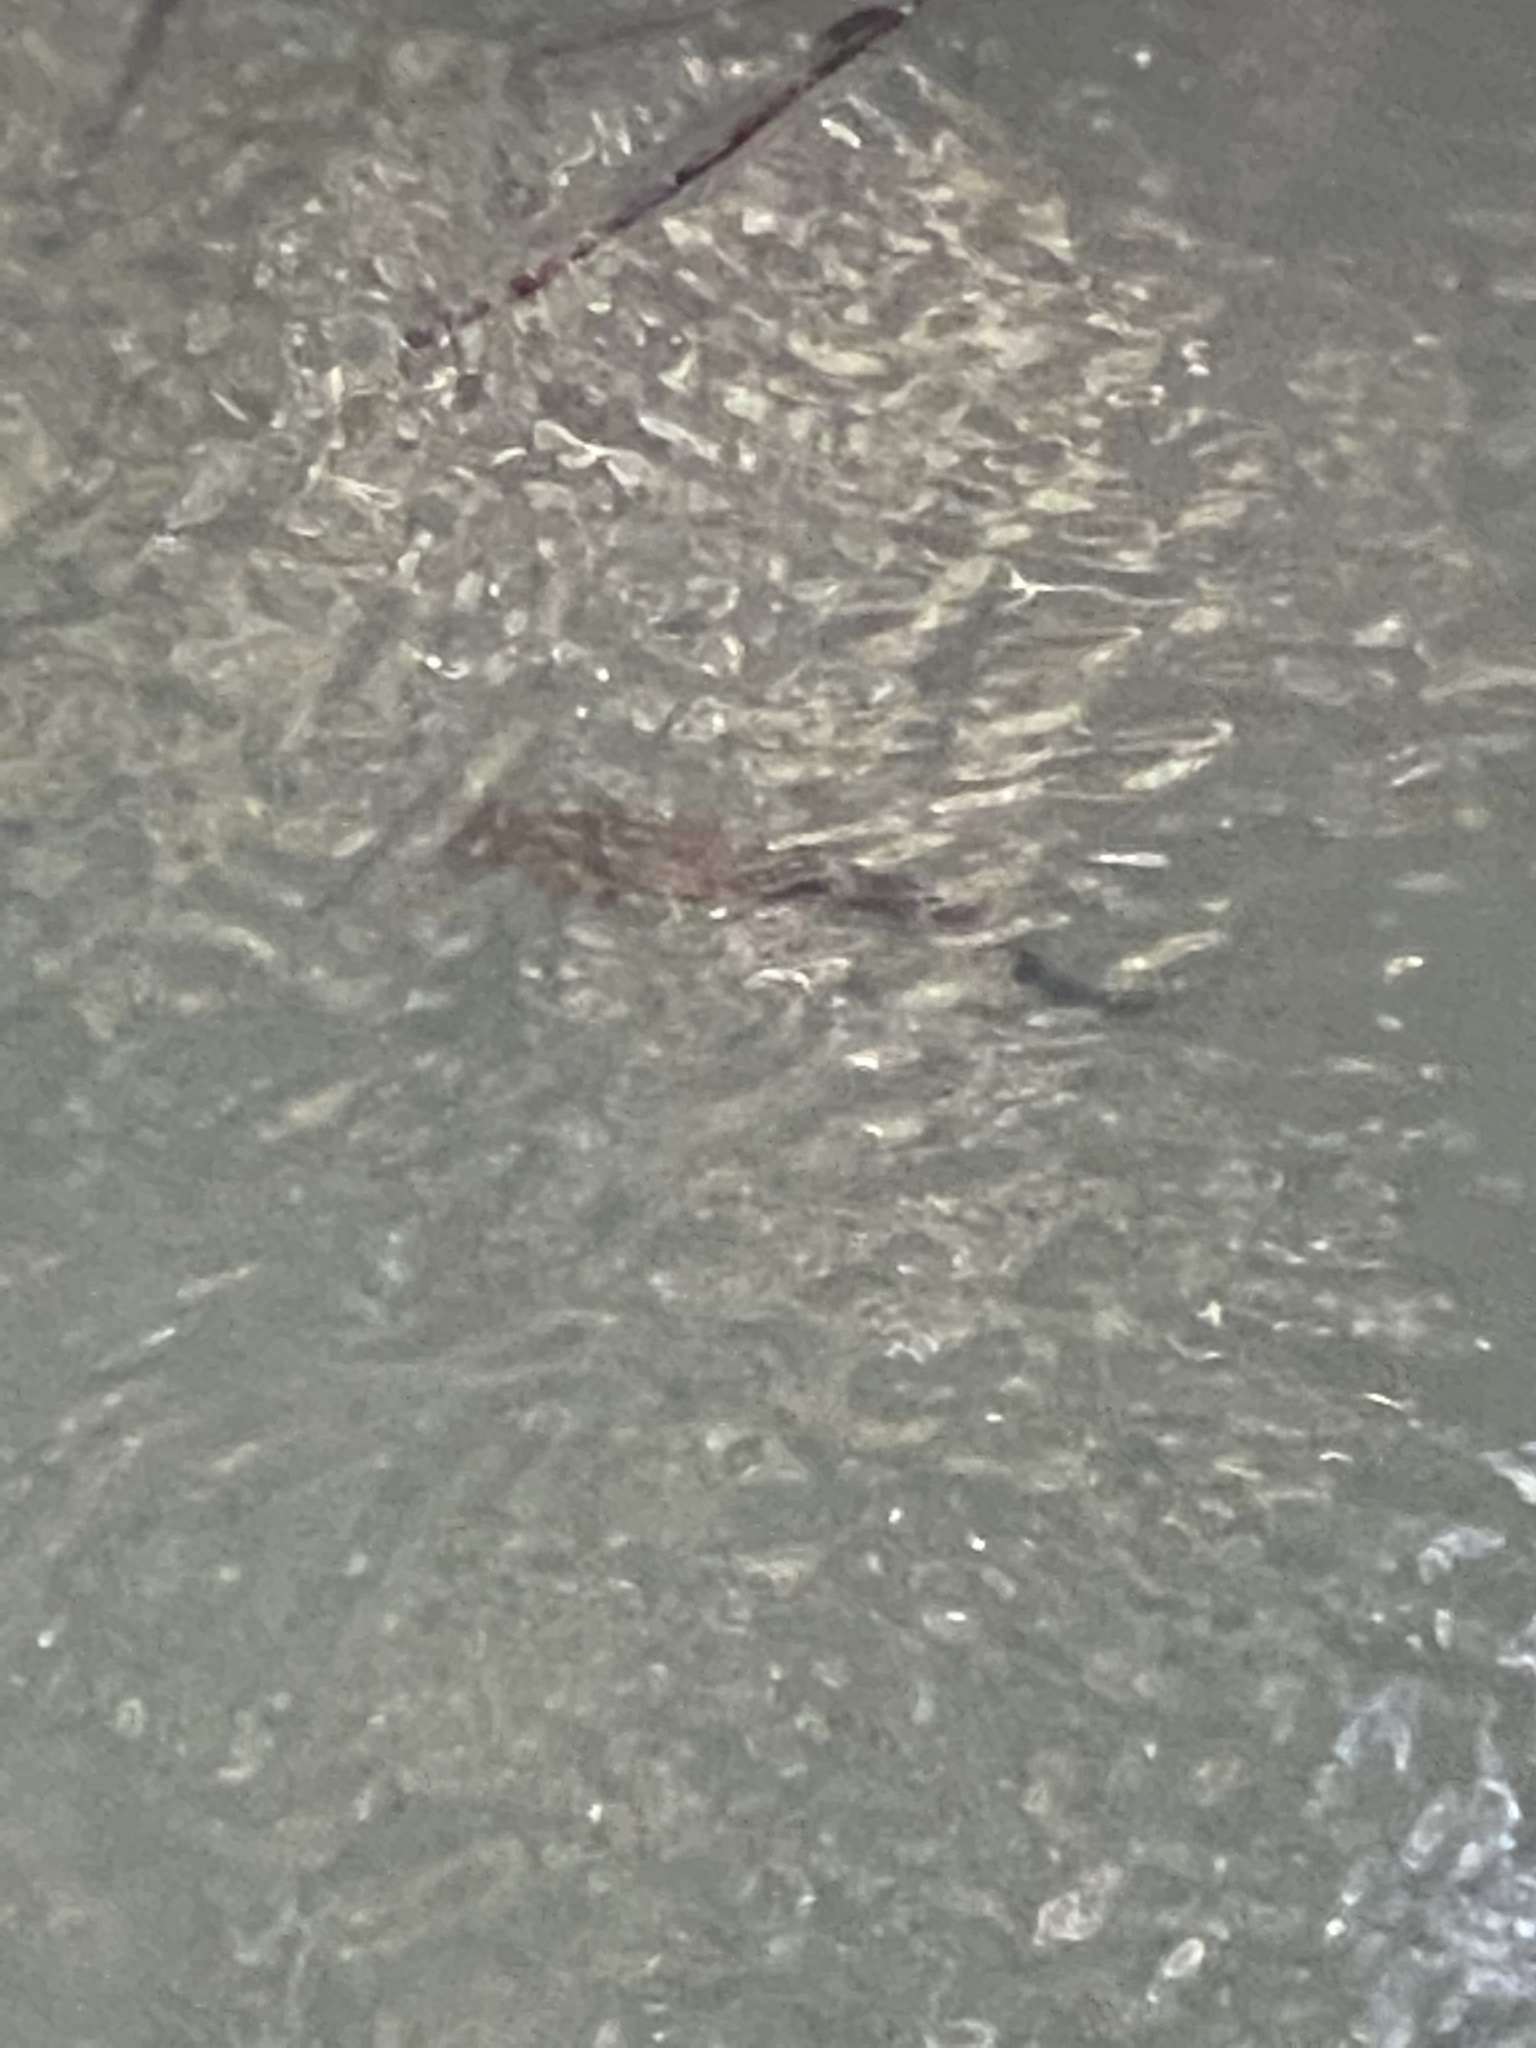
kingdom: Animalia
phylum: Chordata
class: Amphibia
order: Caudata
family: Salamandridae
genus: Taricha
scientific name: Taricha granulosa
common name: Roughskin newt
